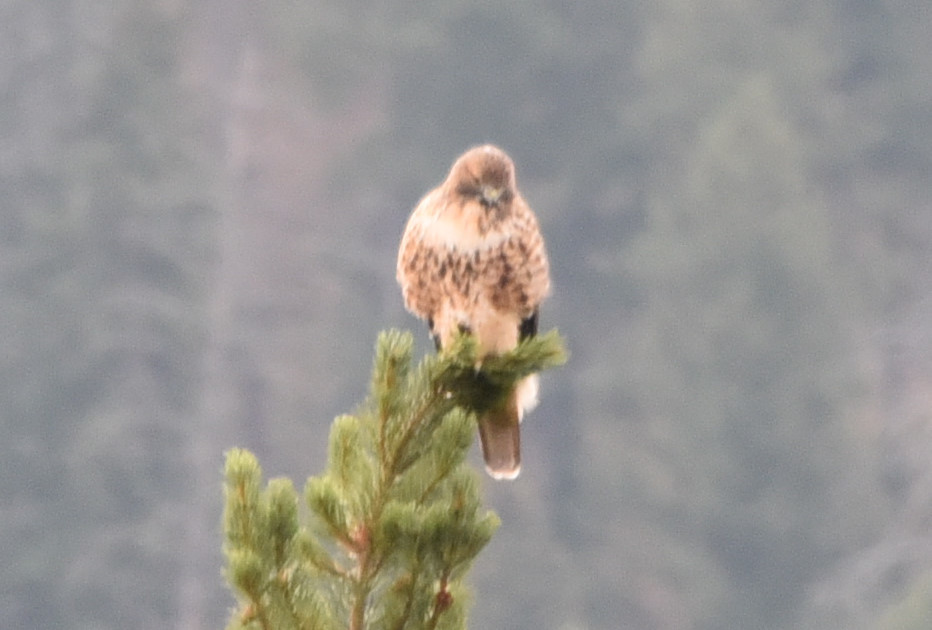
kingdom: Animalia
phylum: Chordata
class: Aves
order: Accipitriformes
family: Accipitridae
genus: Buteo
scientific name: Buteo jamaicensis
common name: Red-tailed hawk
